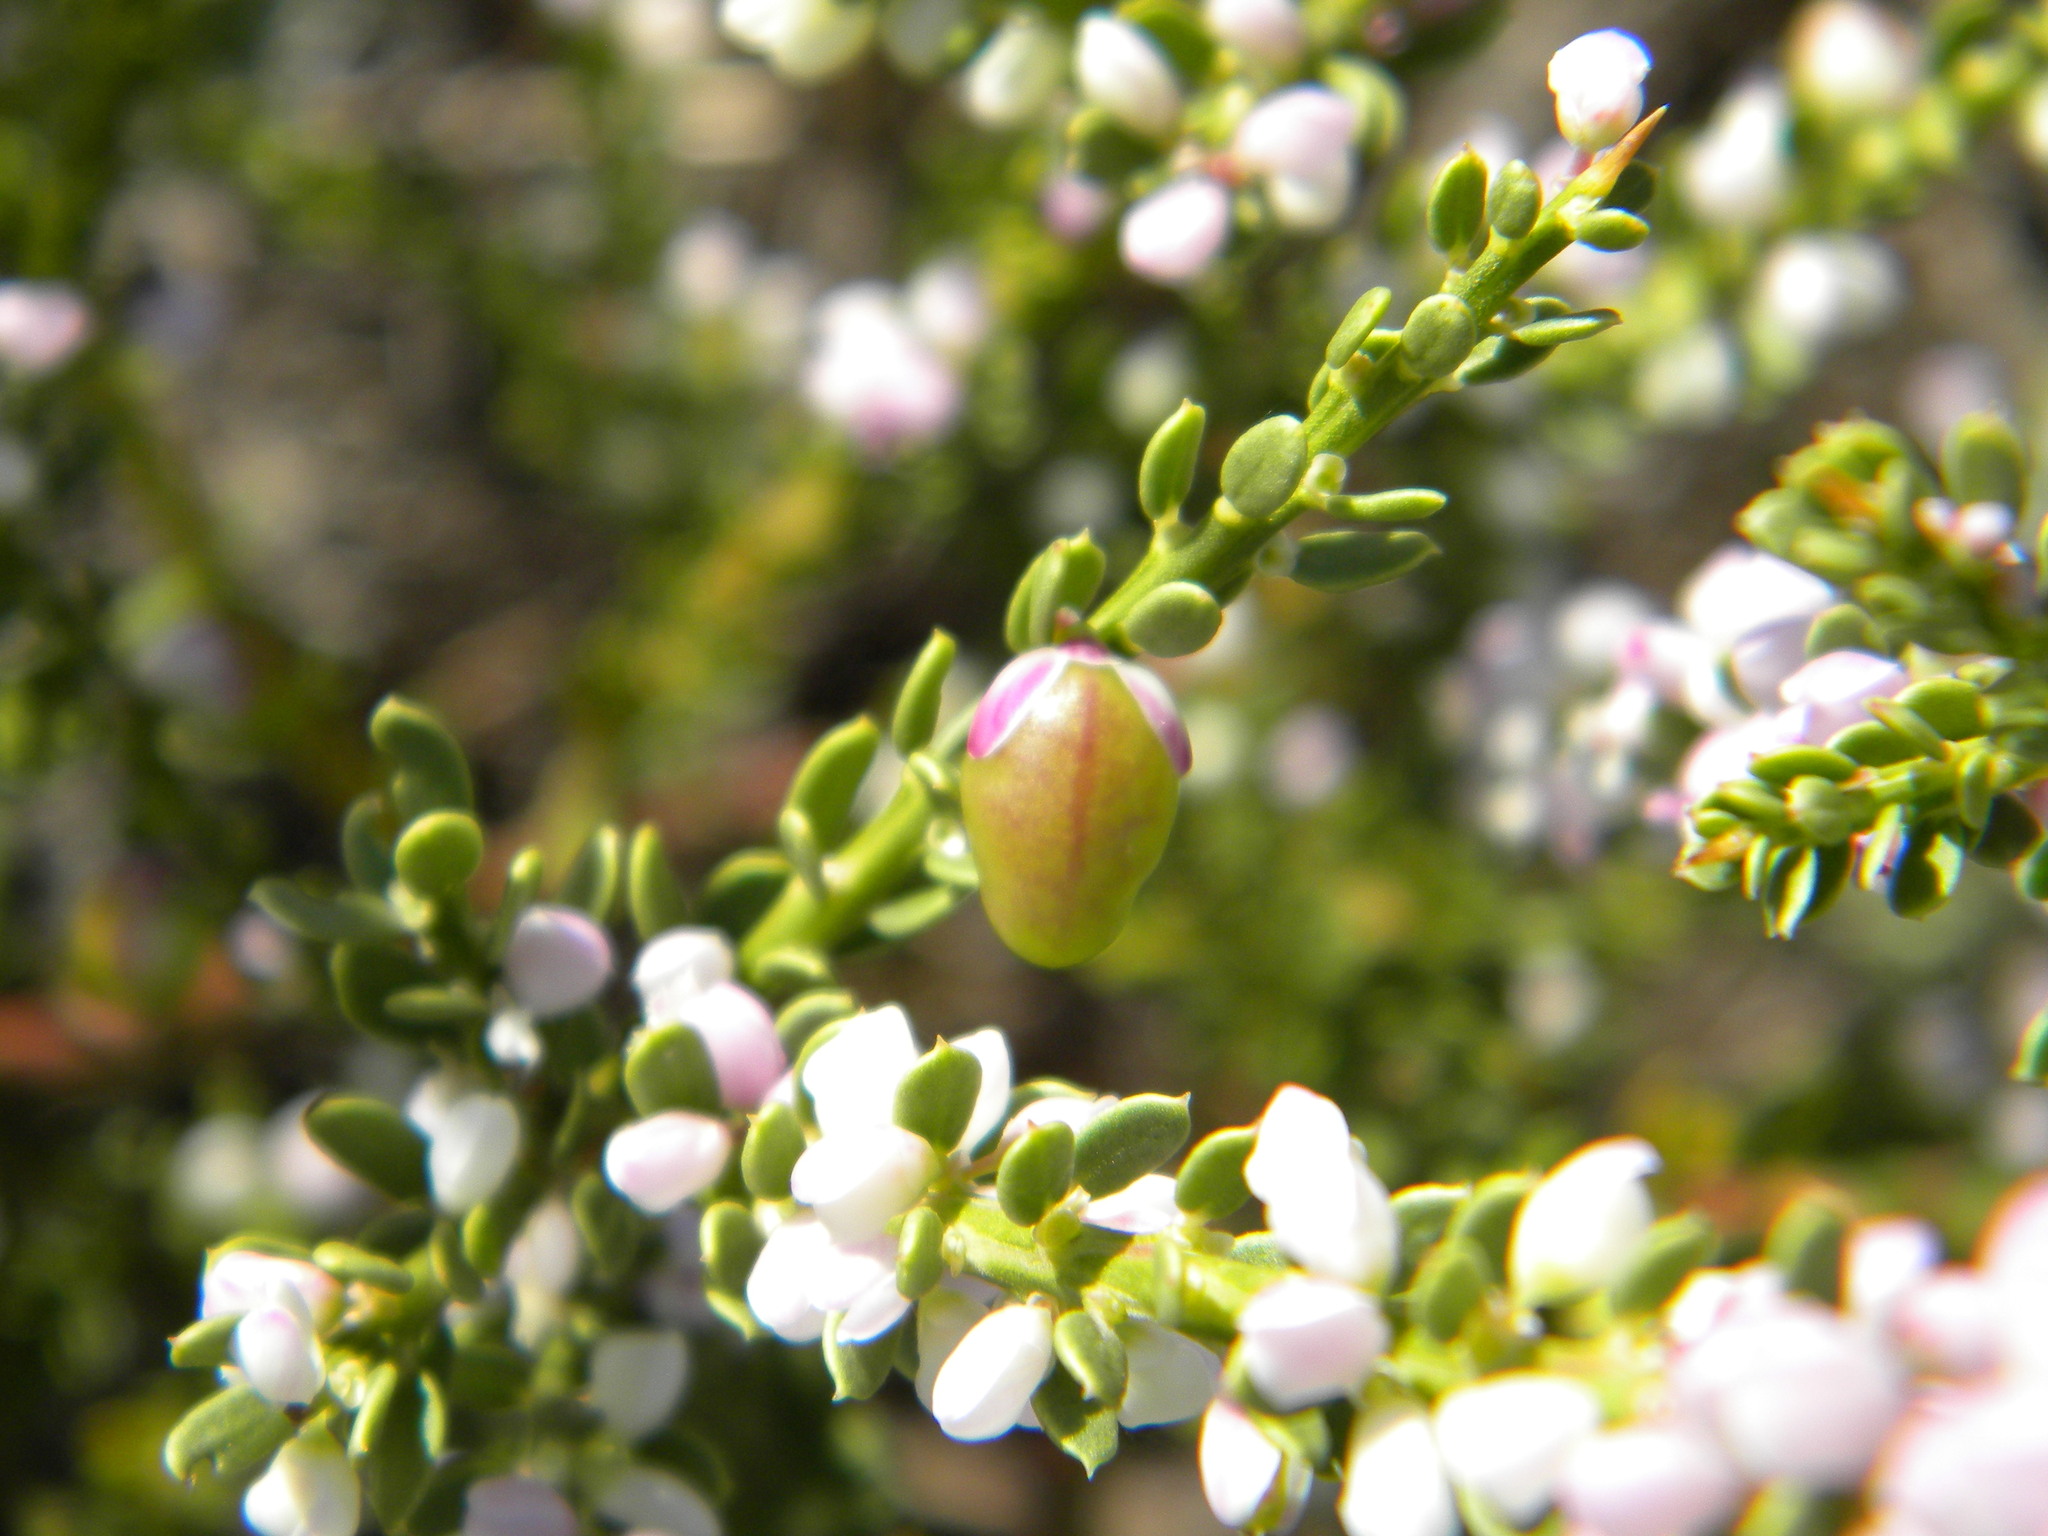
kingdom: Plantae
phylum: Tracheophyta
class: Magnoliopsida
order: Fabales
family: Polygalaceae
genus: Muraltia
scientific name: Muraltia spinosa
